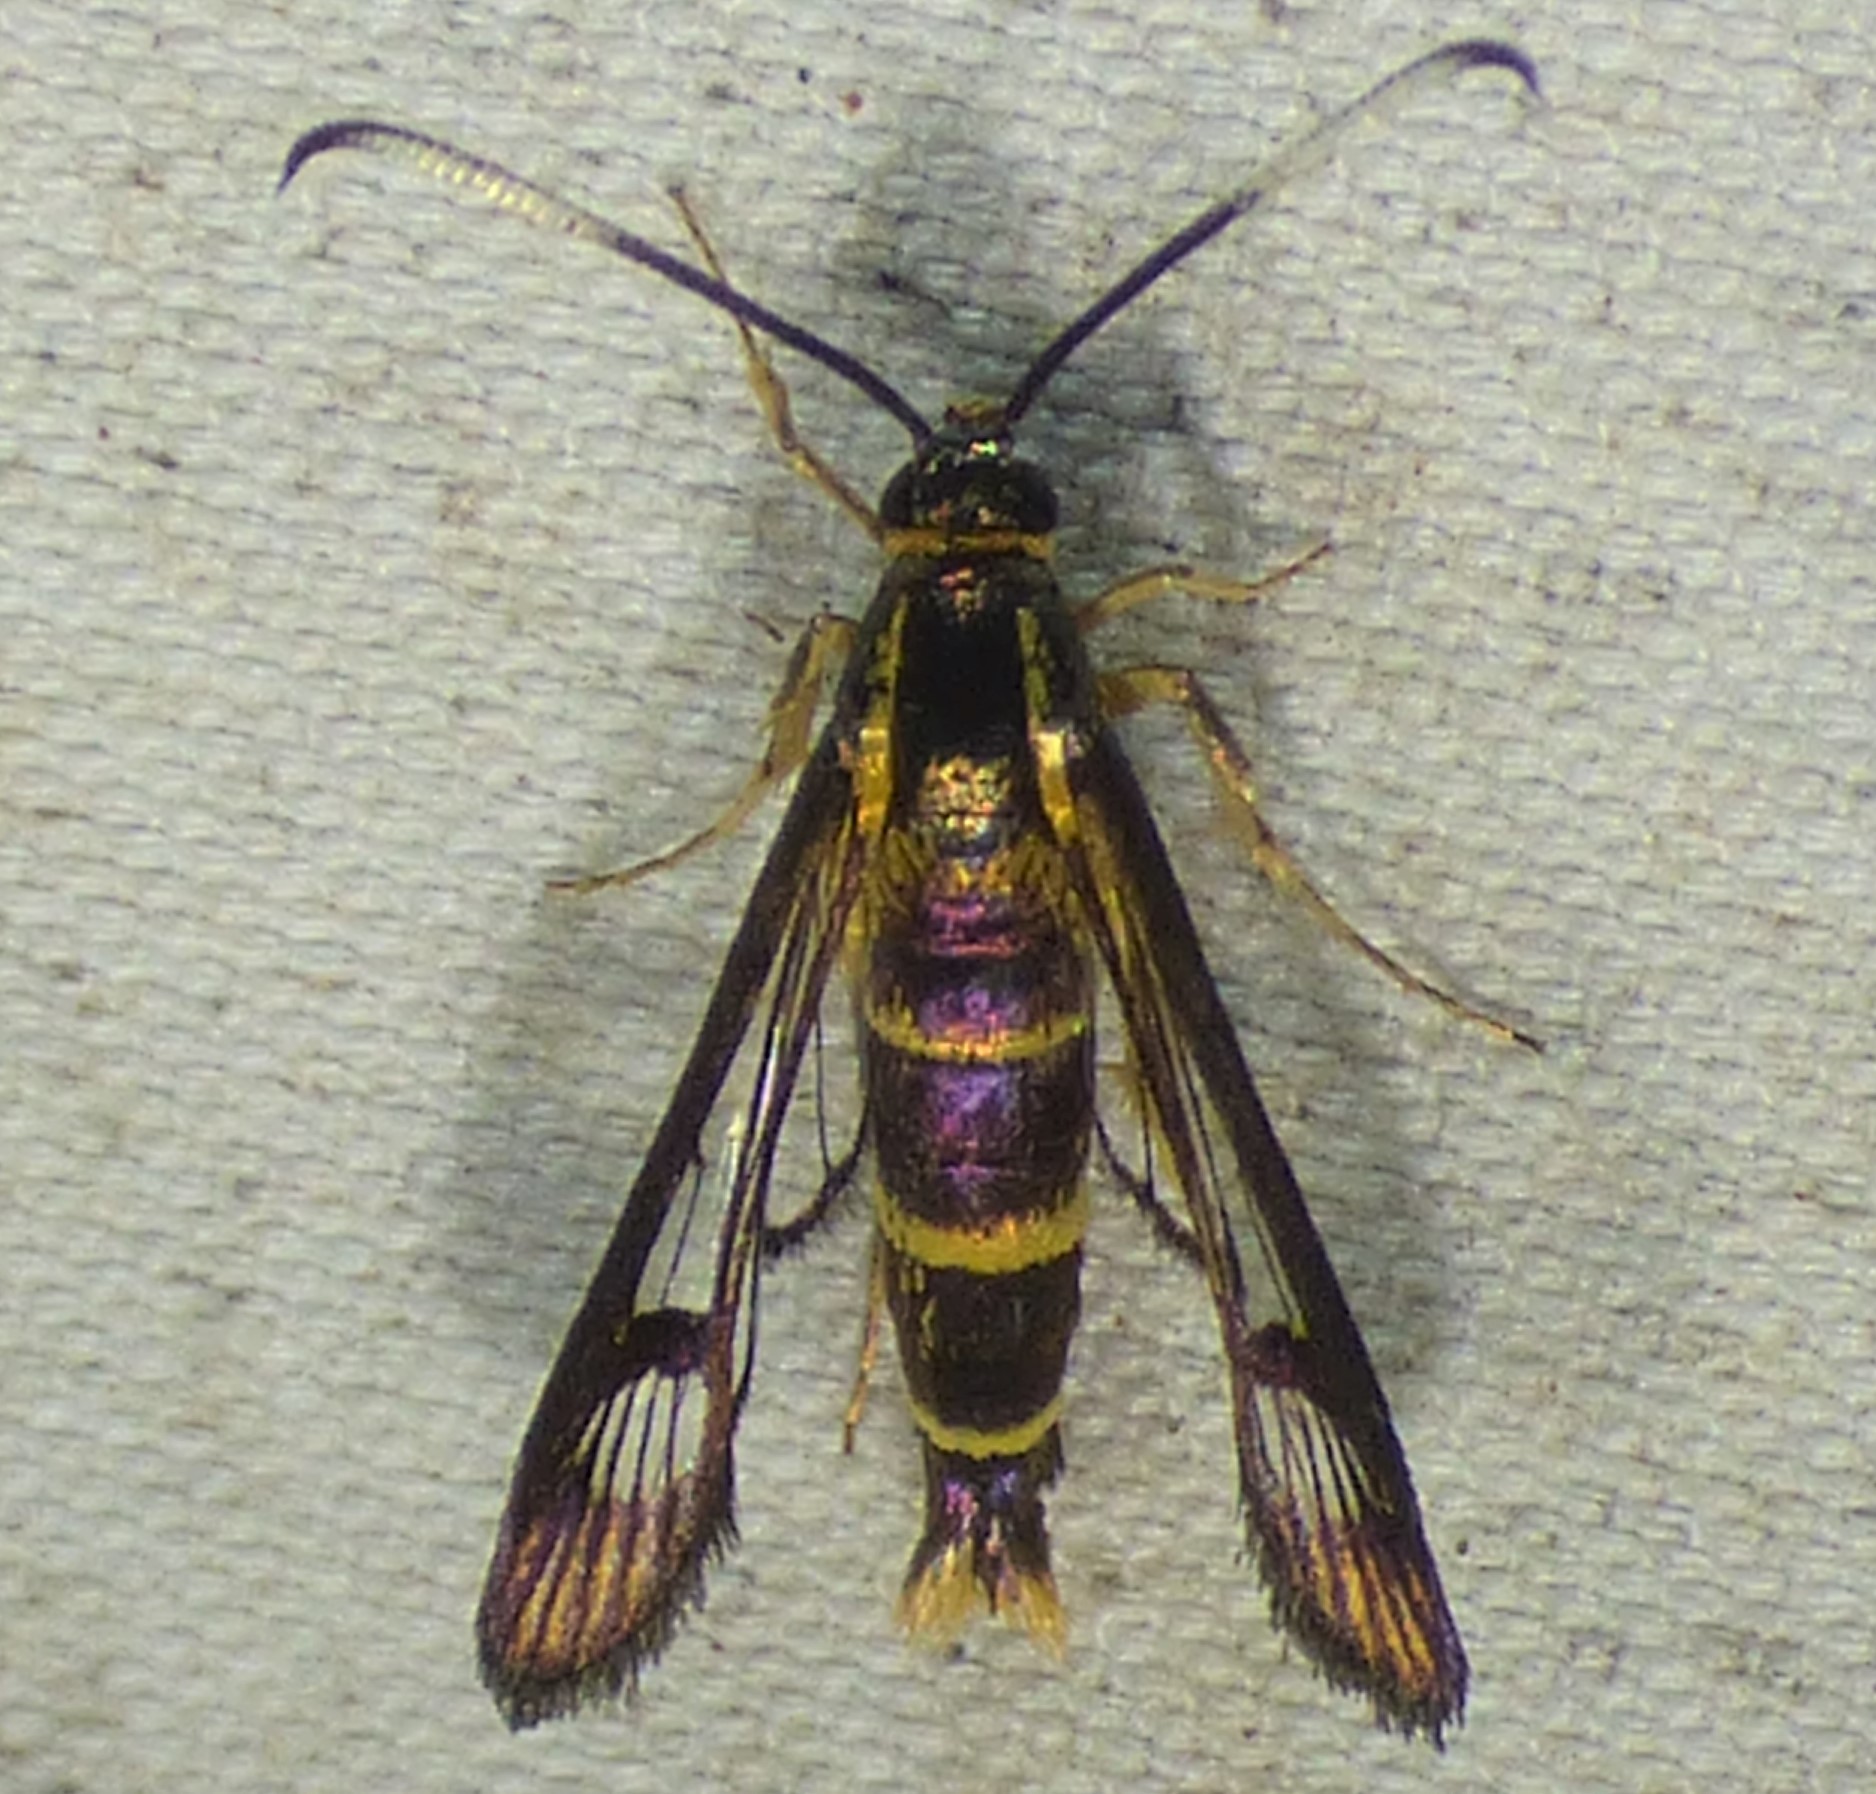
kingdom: Animalia
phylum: Arthropoda
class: Insecta
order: Lepidoptera
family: Sesiidae
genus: Carmenta
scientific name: Carmenta bassiformis
